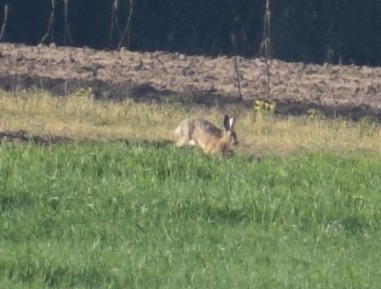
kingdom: Animalia
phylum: Chordata
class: Mammalia
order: Lagomorpha
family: Leporidae
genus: Lepus
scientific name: Lepus europaeus
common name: European hare
